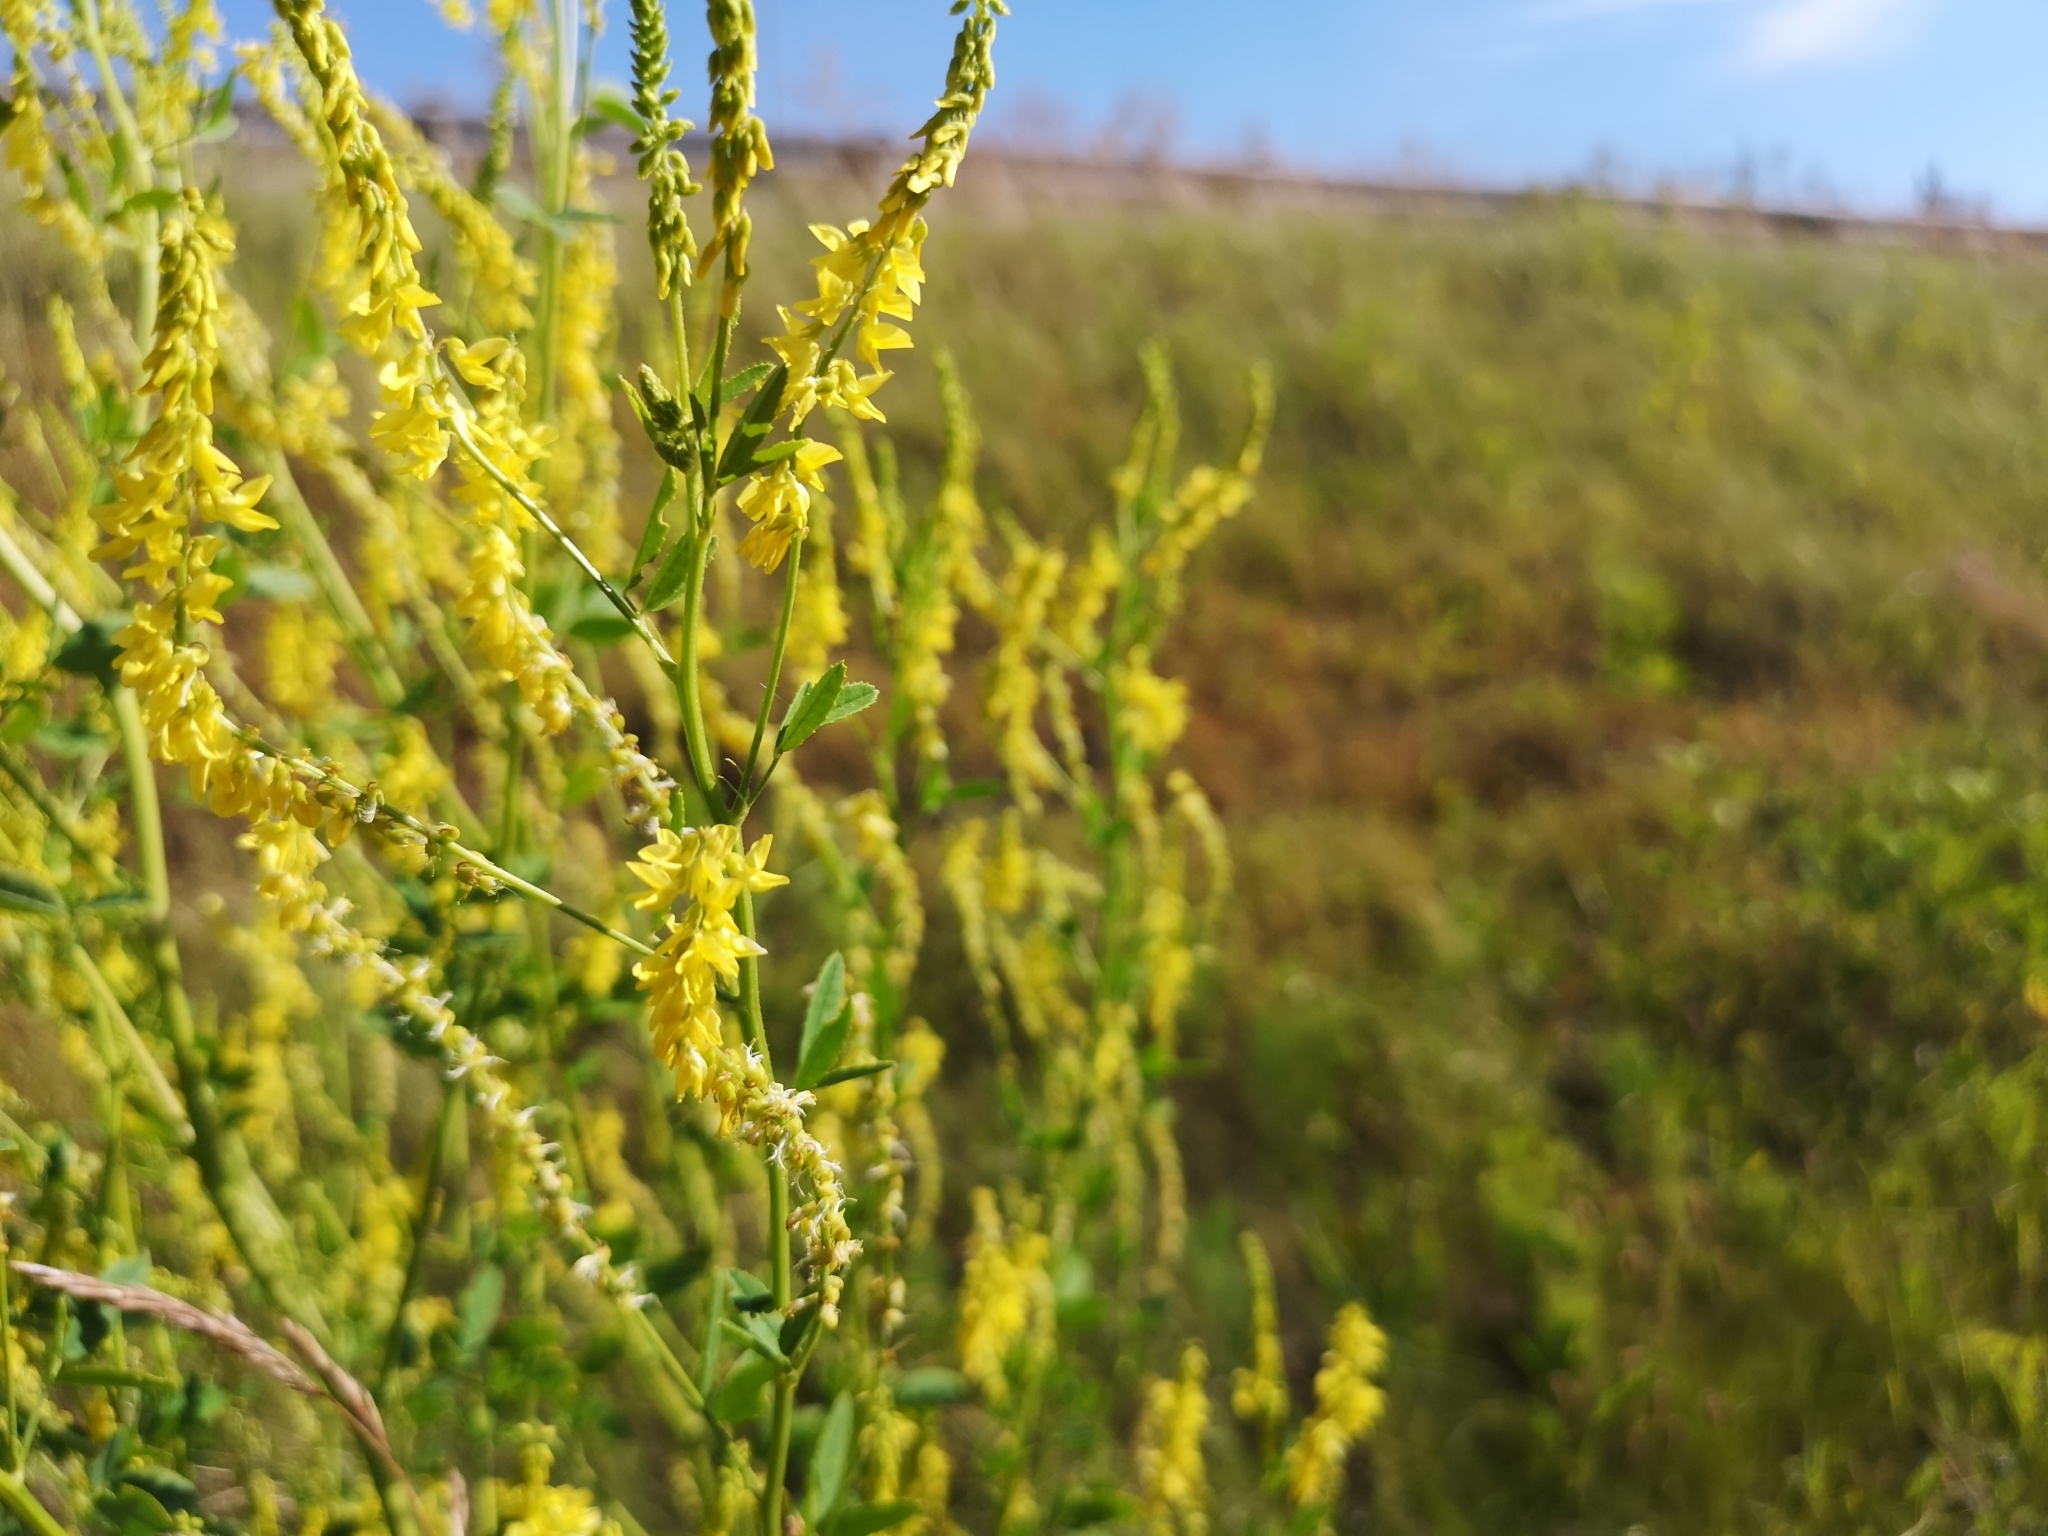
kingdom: Plantae
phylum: Tracheophyta
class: Magnoliopsida
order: Fabales
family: Fabaceae
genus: Melilotus
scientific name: Melilotus officinalis
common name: Sweetclover
